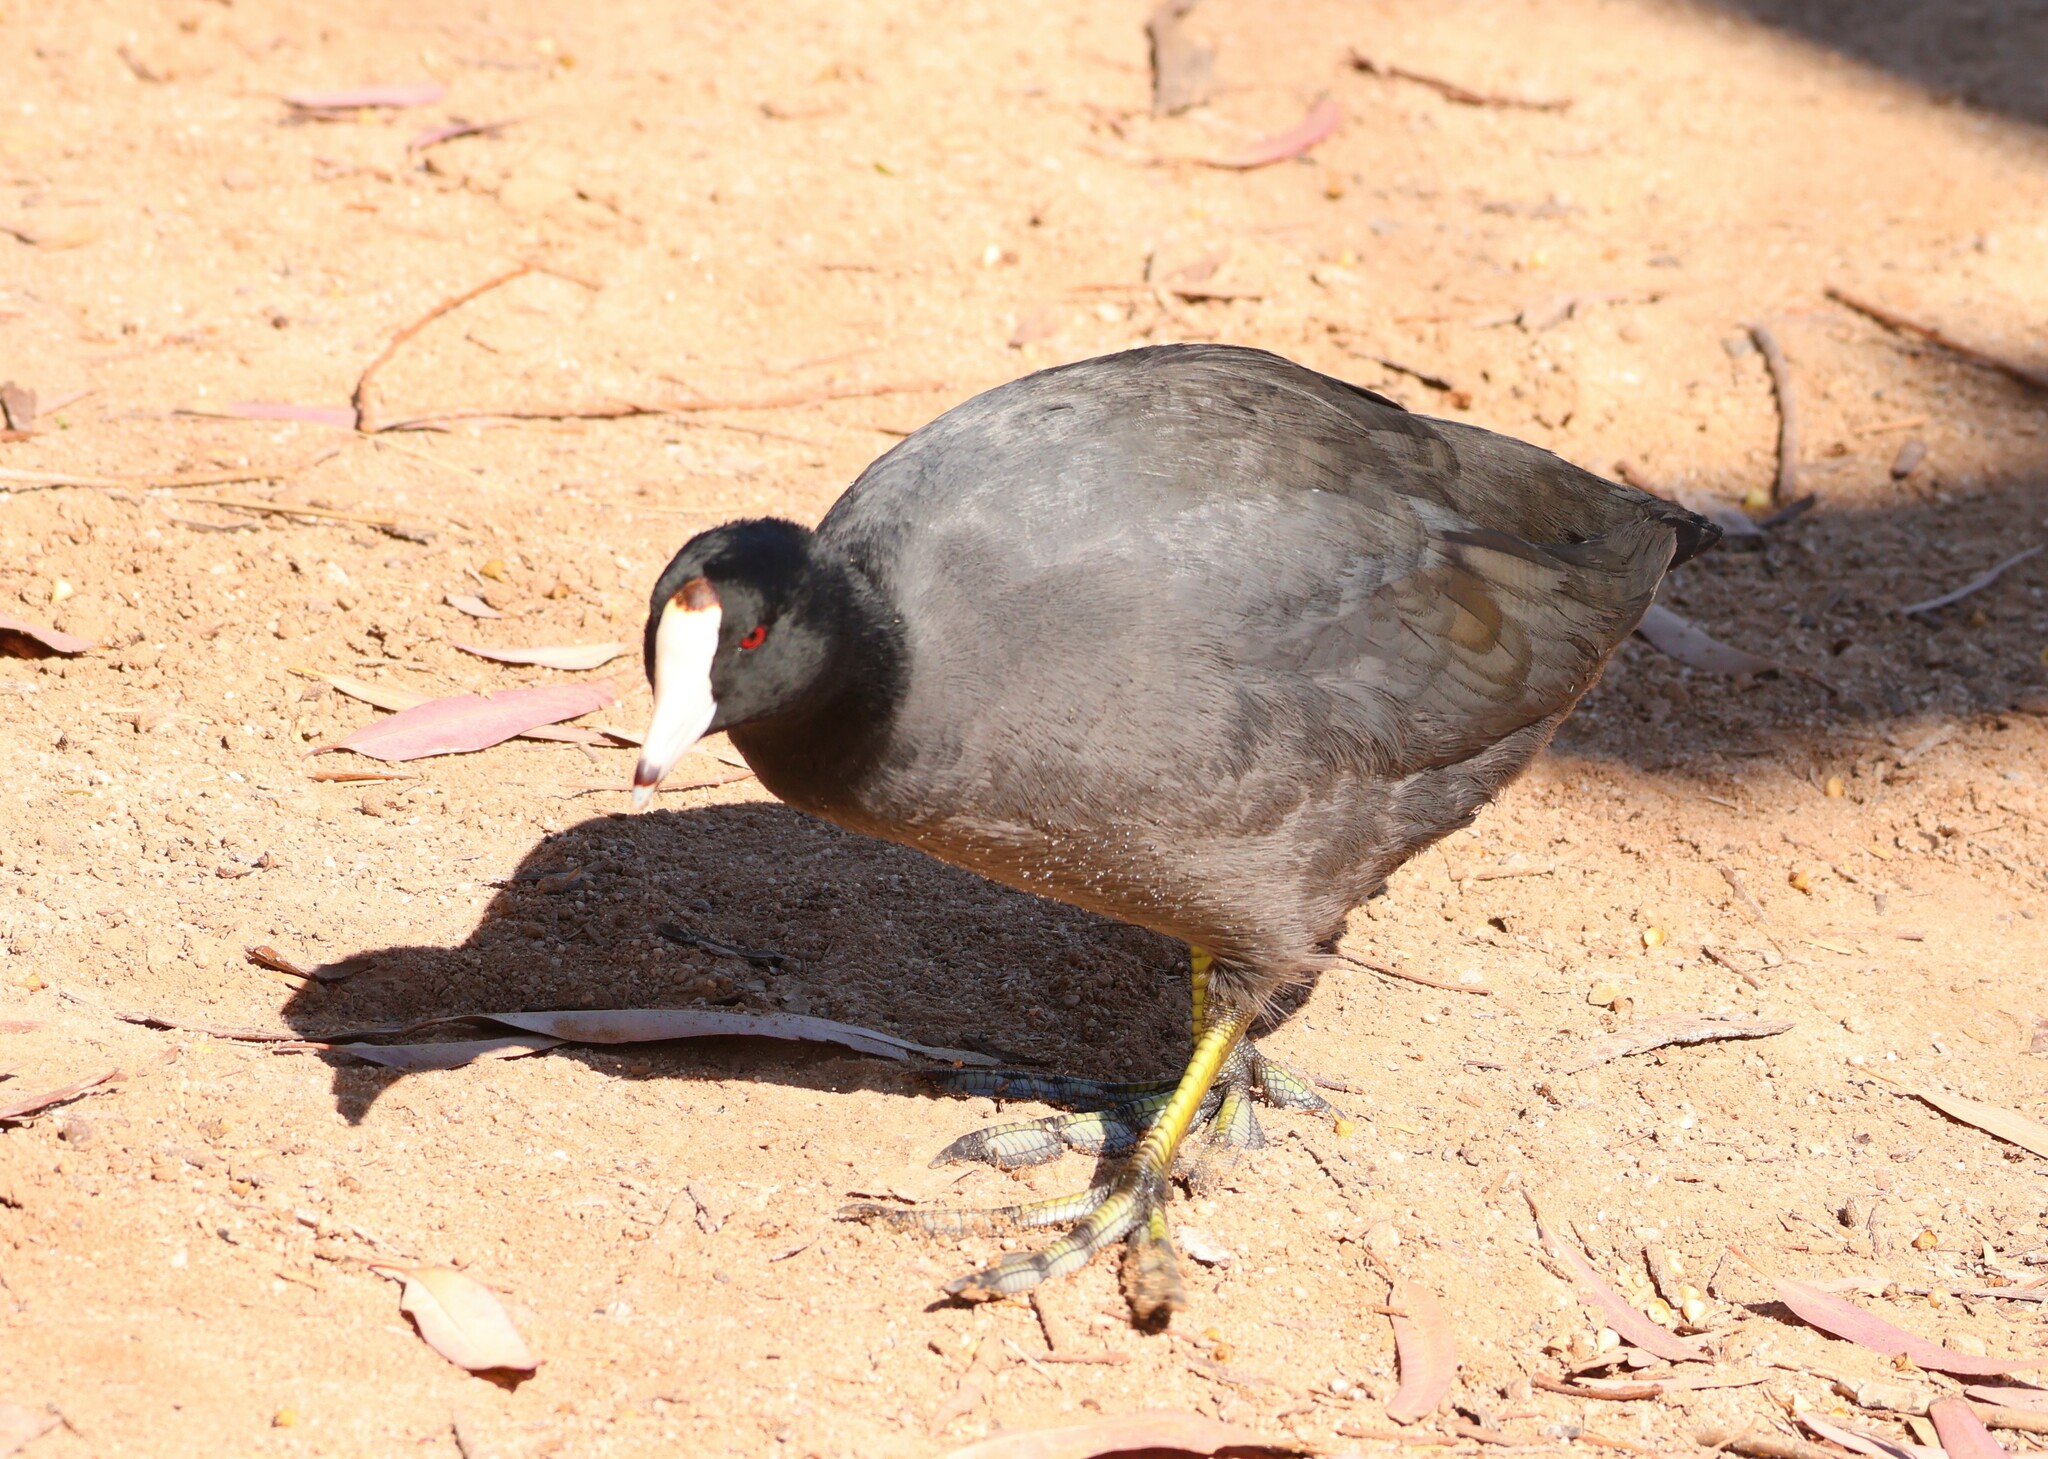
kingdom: Animalia
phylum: Chordata
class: Aves
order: Gruiformes
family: Rallidae
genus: Fulica
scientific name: Fulica americana
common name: American coot
